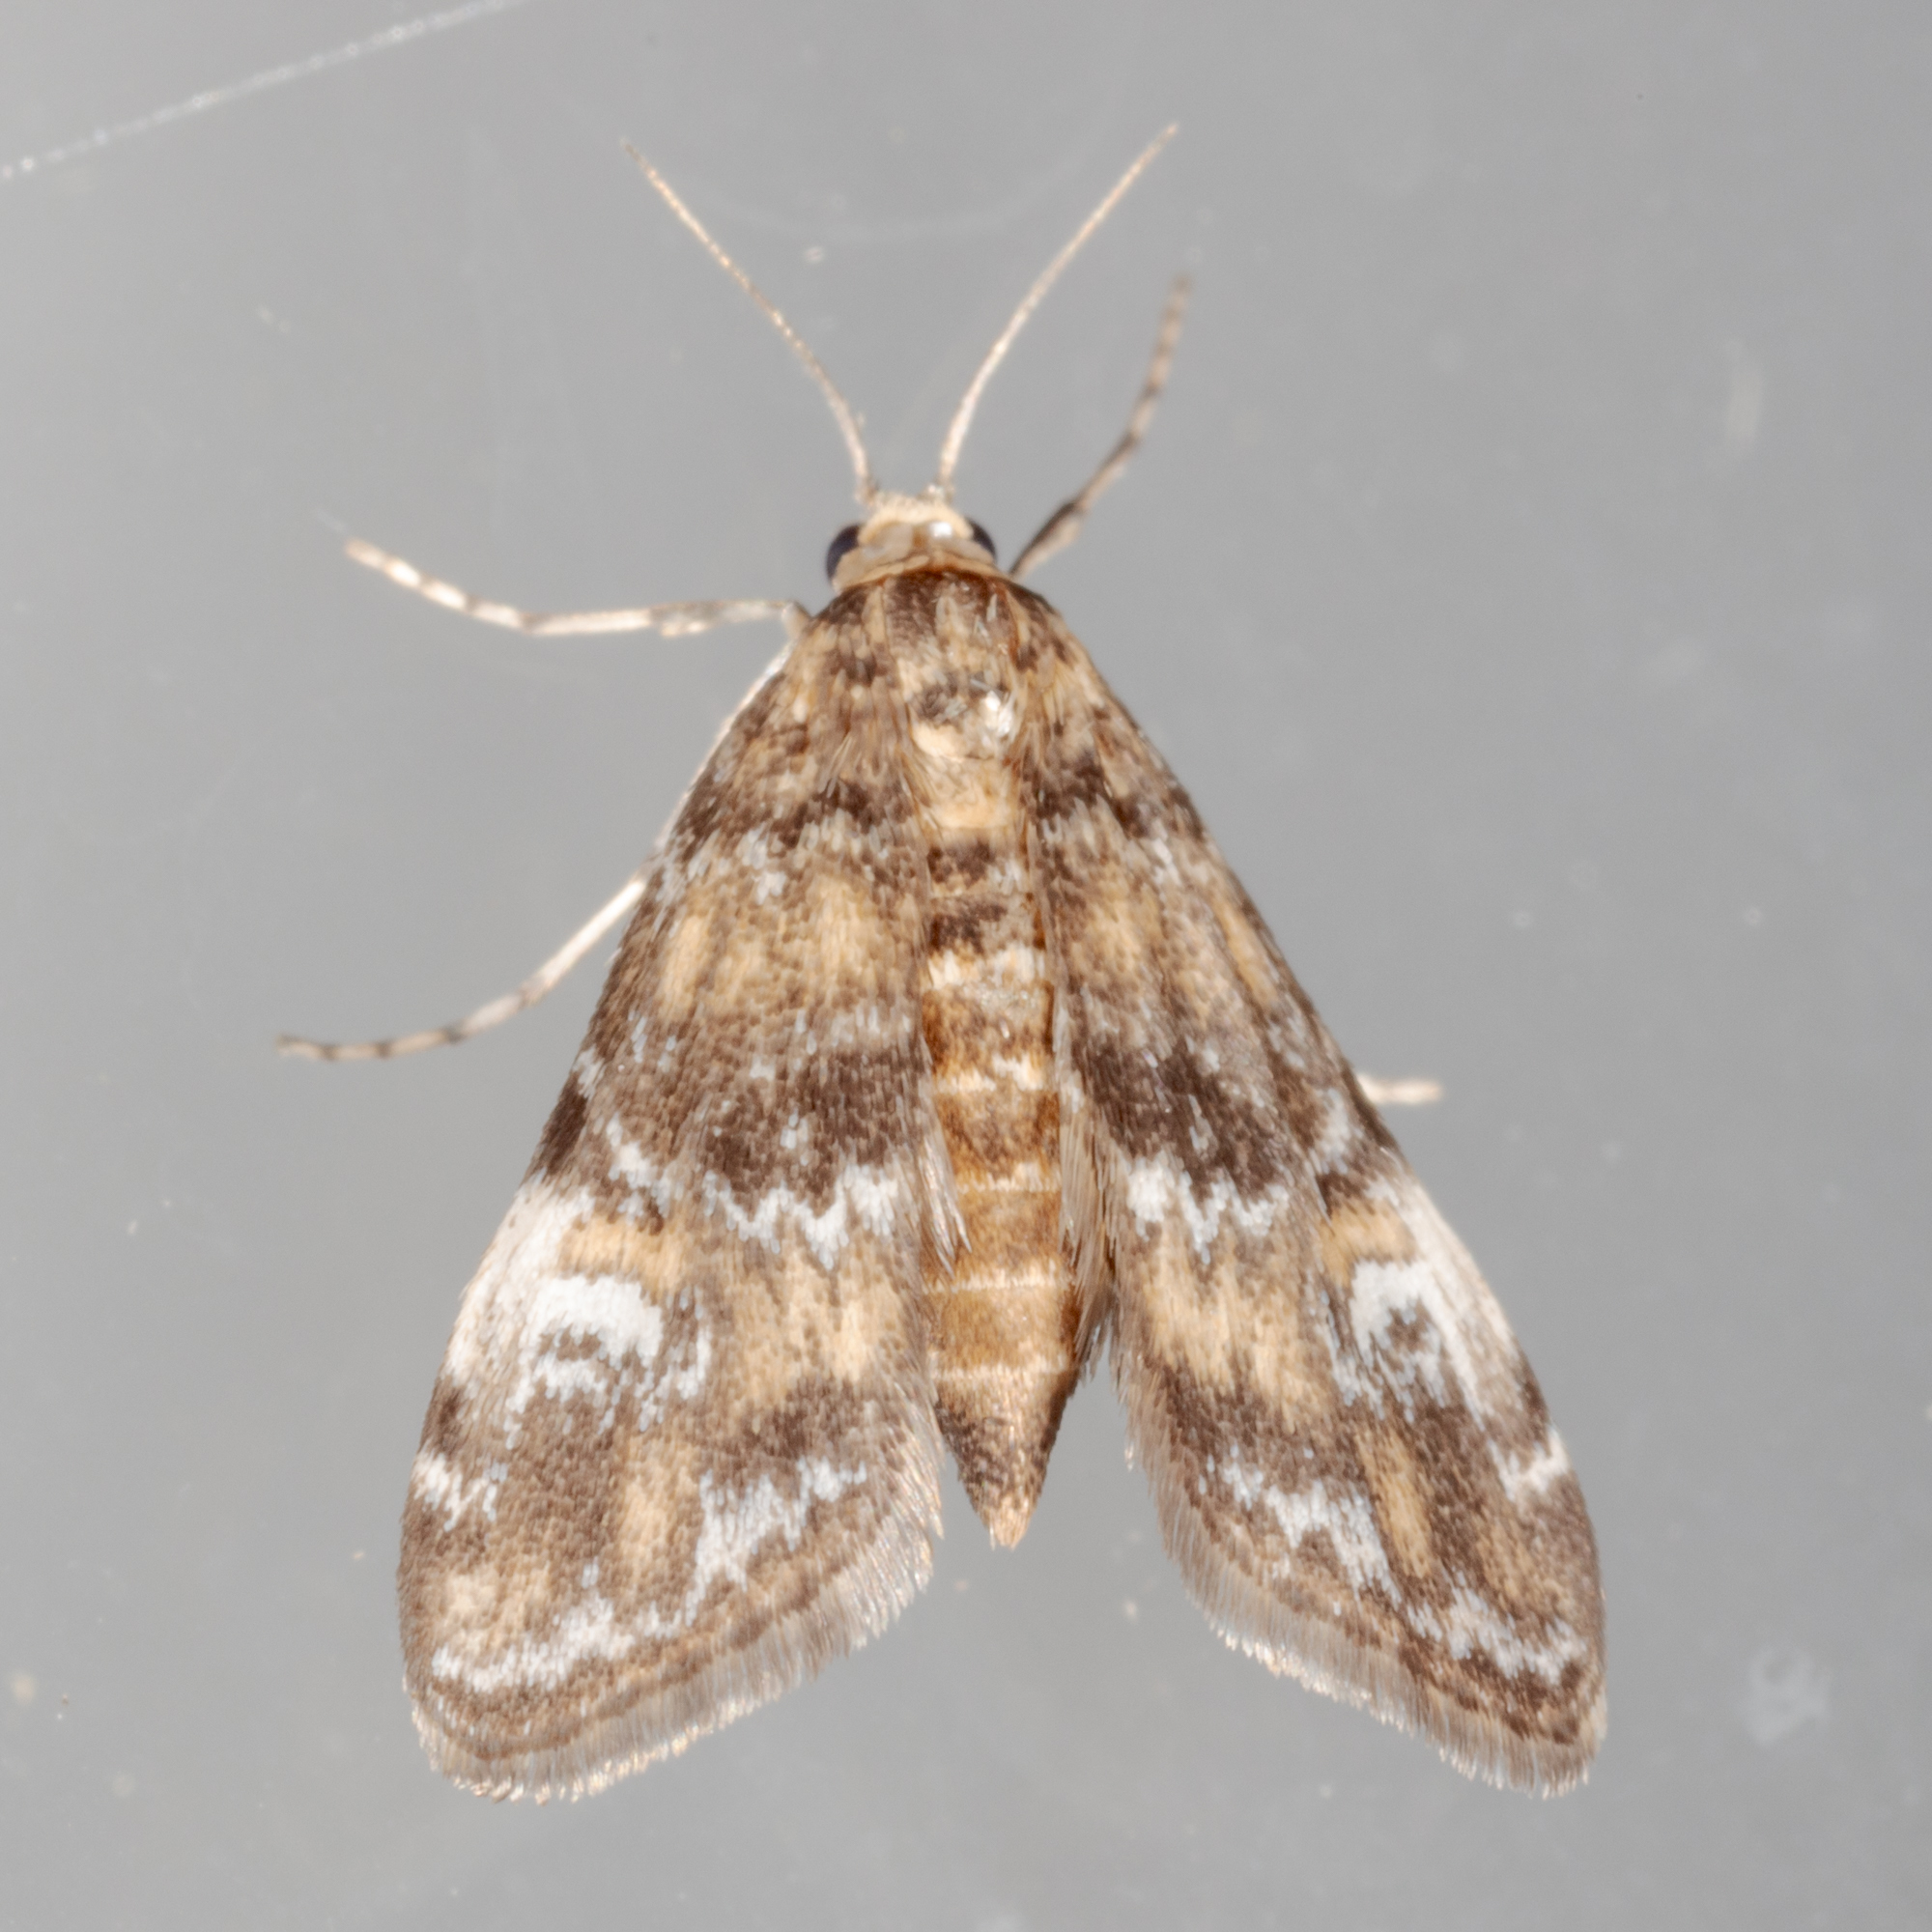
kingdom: Animalia
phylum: Arthropoda
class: Insecta
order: Lepidoptera
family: Crambidae
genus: Elophila
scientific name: Elophila obliteralis
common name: Waterlily leafcutter moth
